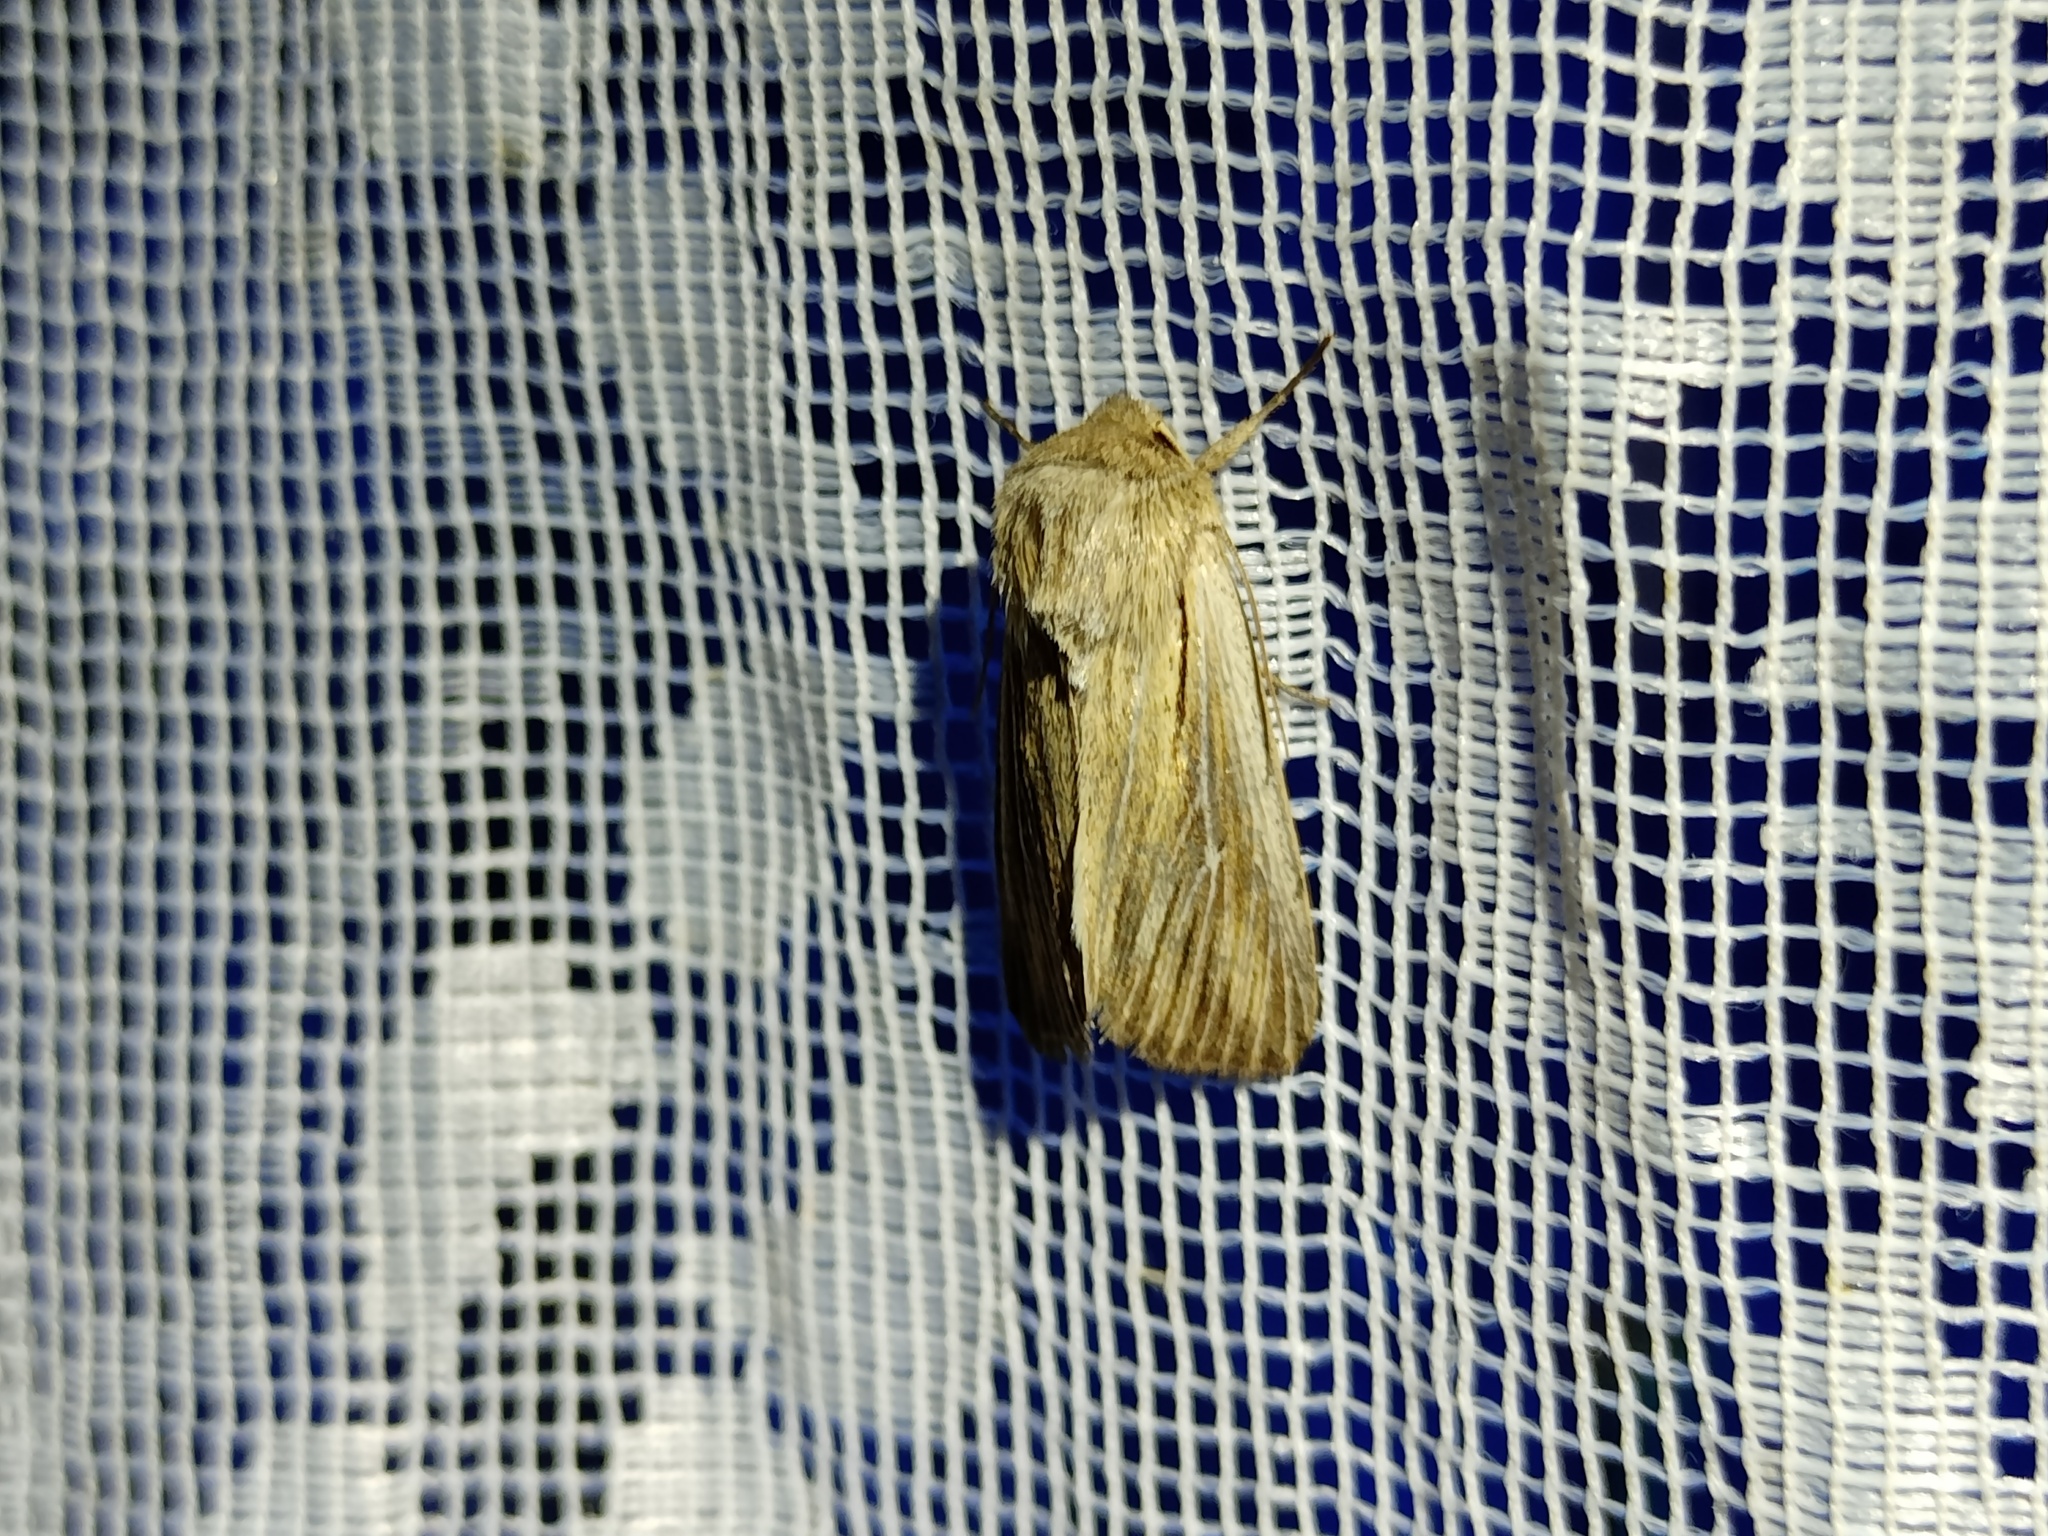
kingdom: Animalia
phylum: Arthropoda
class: Insecta
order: Lepidoptera
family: Noctuidae
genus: Leucania
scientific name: Leucania comma
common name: Shoulder-striped wainscot
